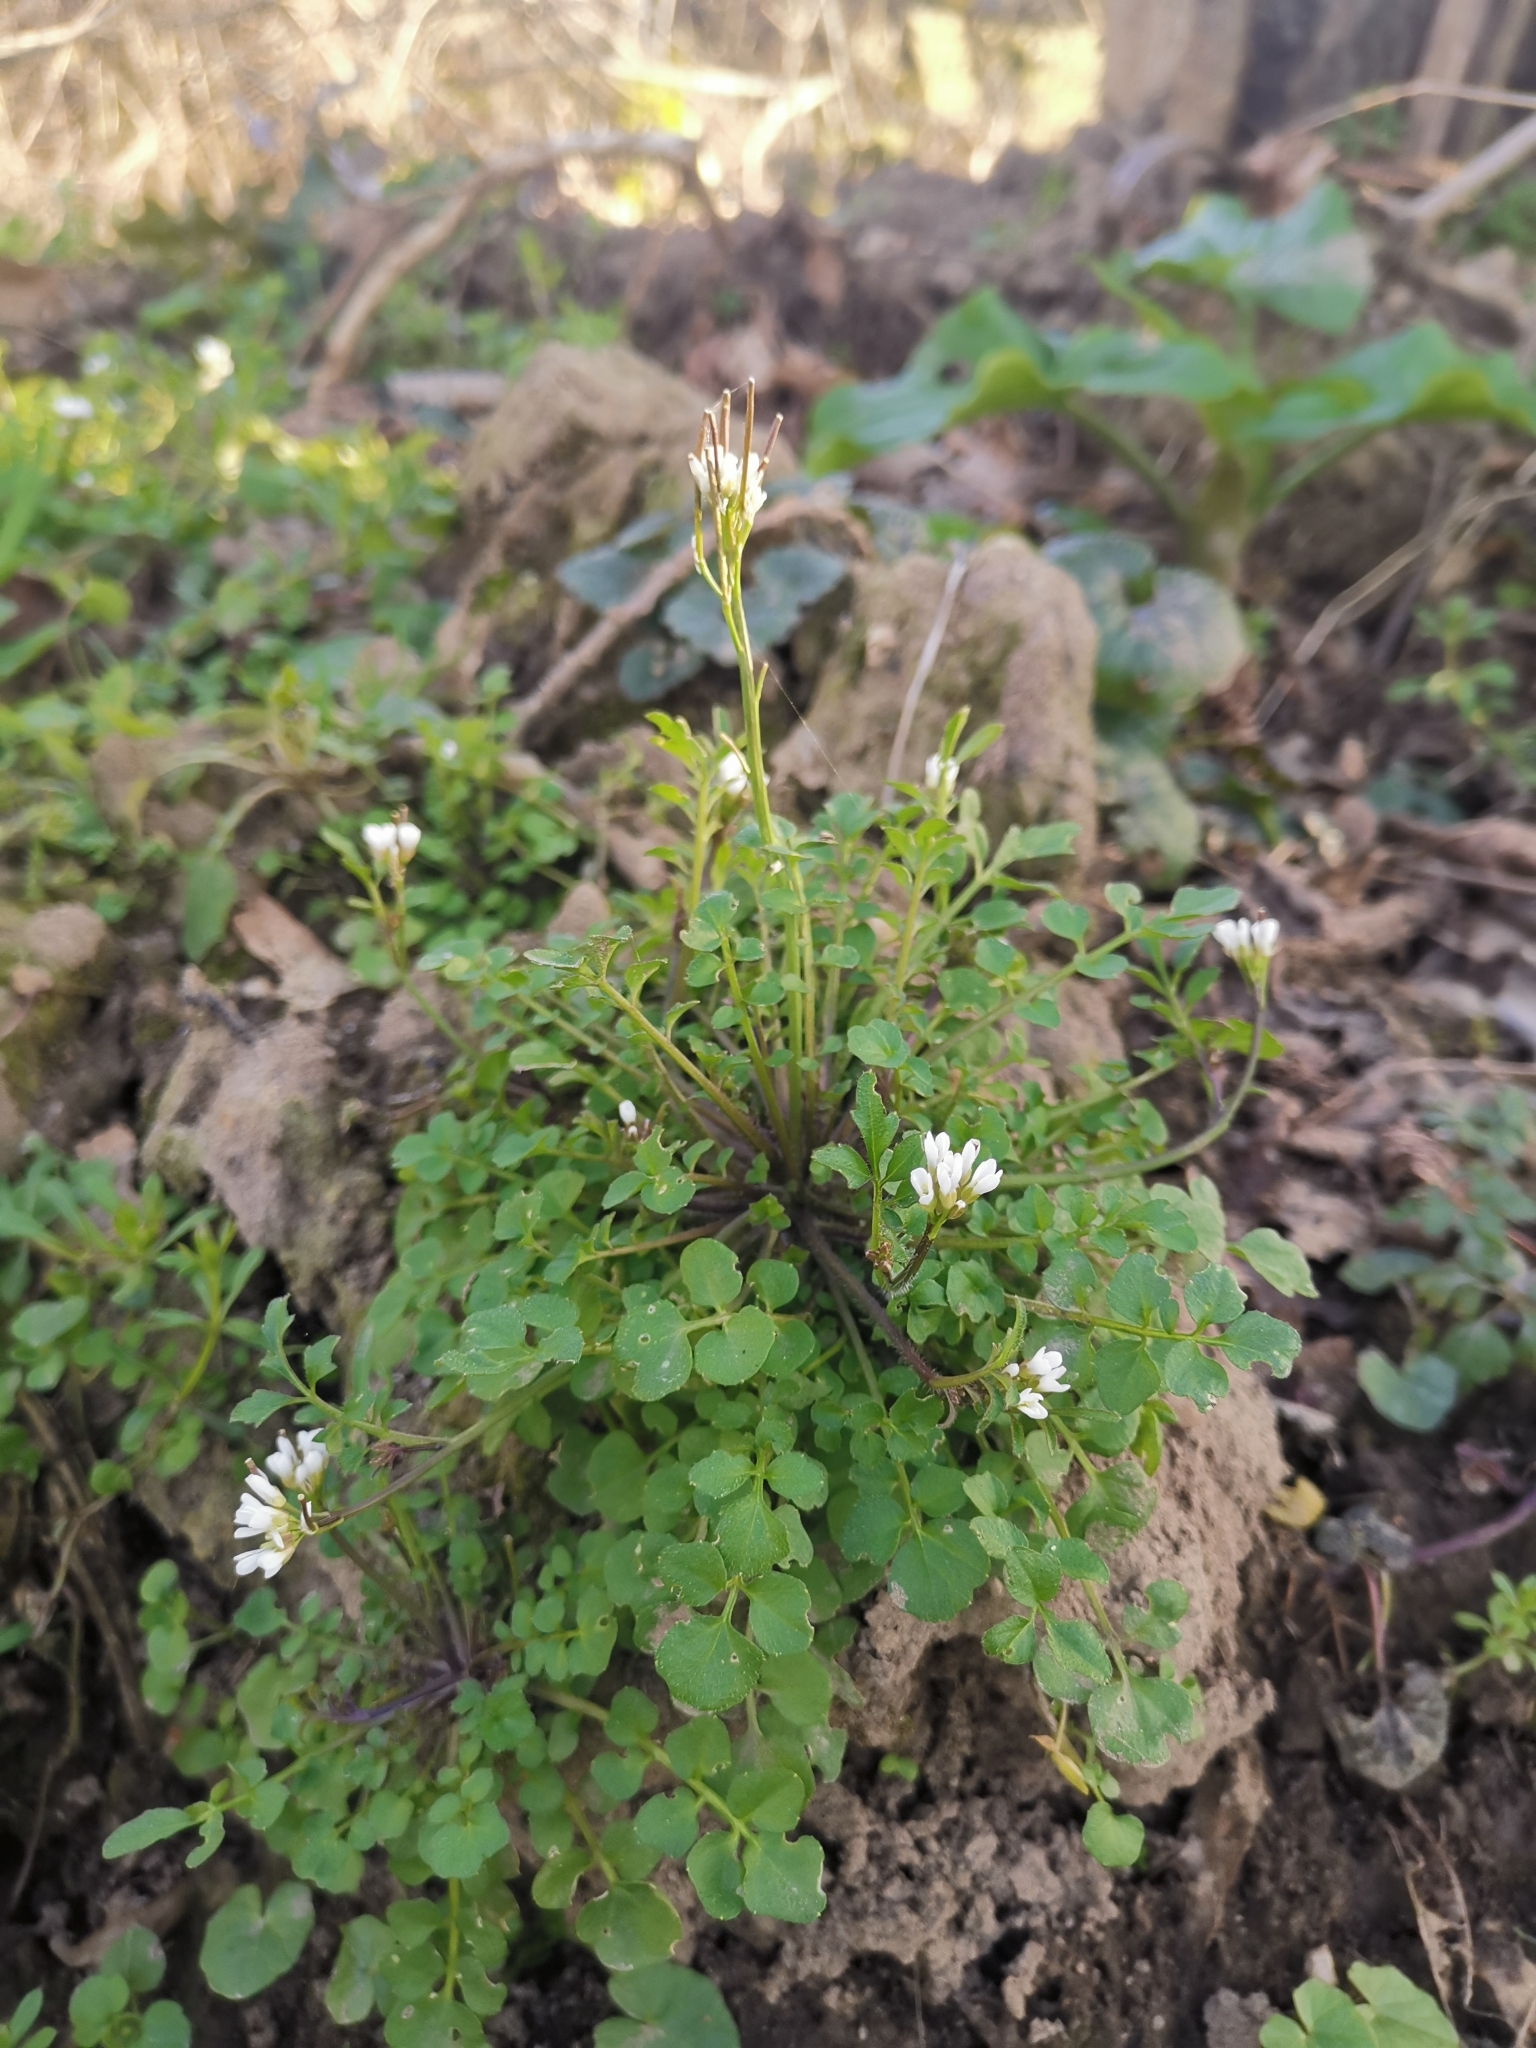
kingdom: Plantae
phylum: Tracheophyta
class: Magnoliopsida
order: Brassicales
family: Brassicaceae
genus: Cardamine
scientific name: Cardamine hirsuta
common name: Hairy bittercress
